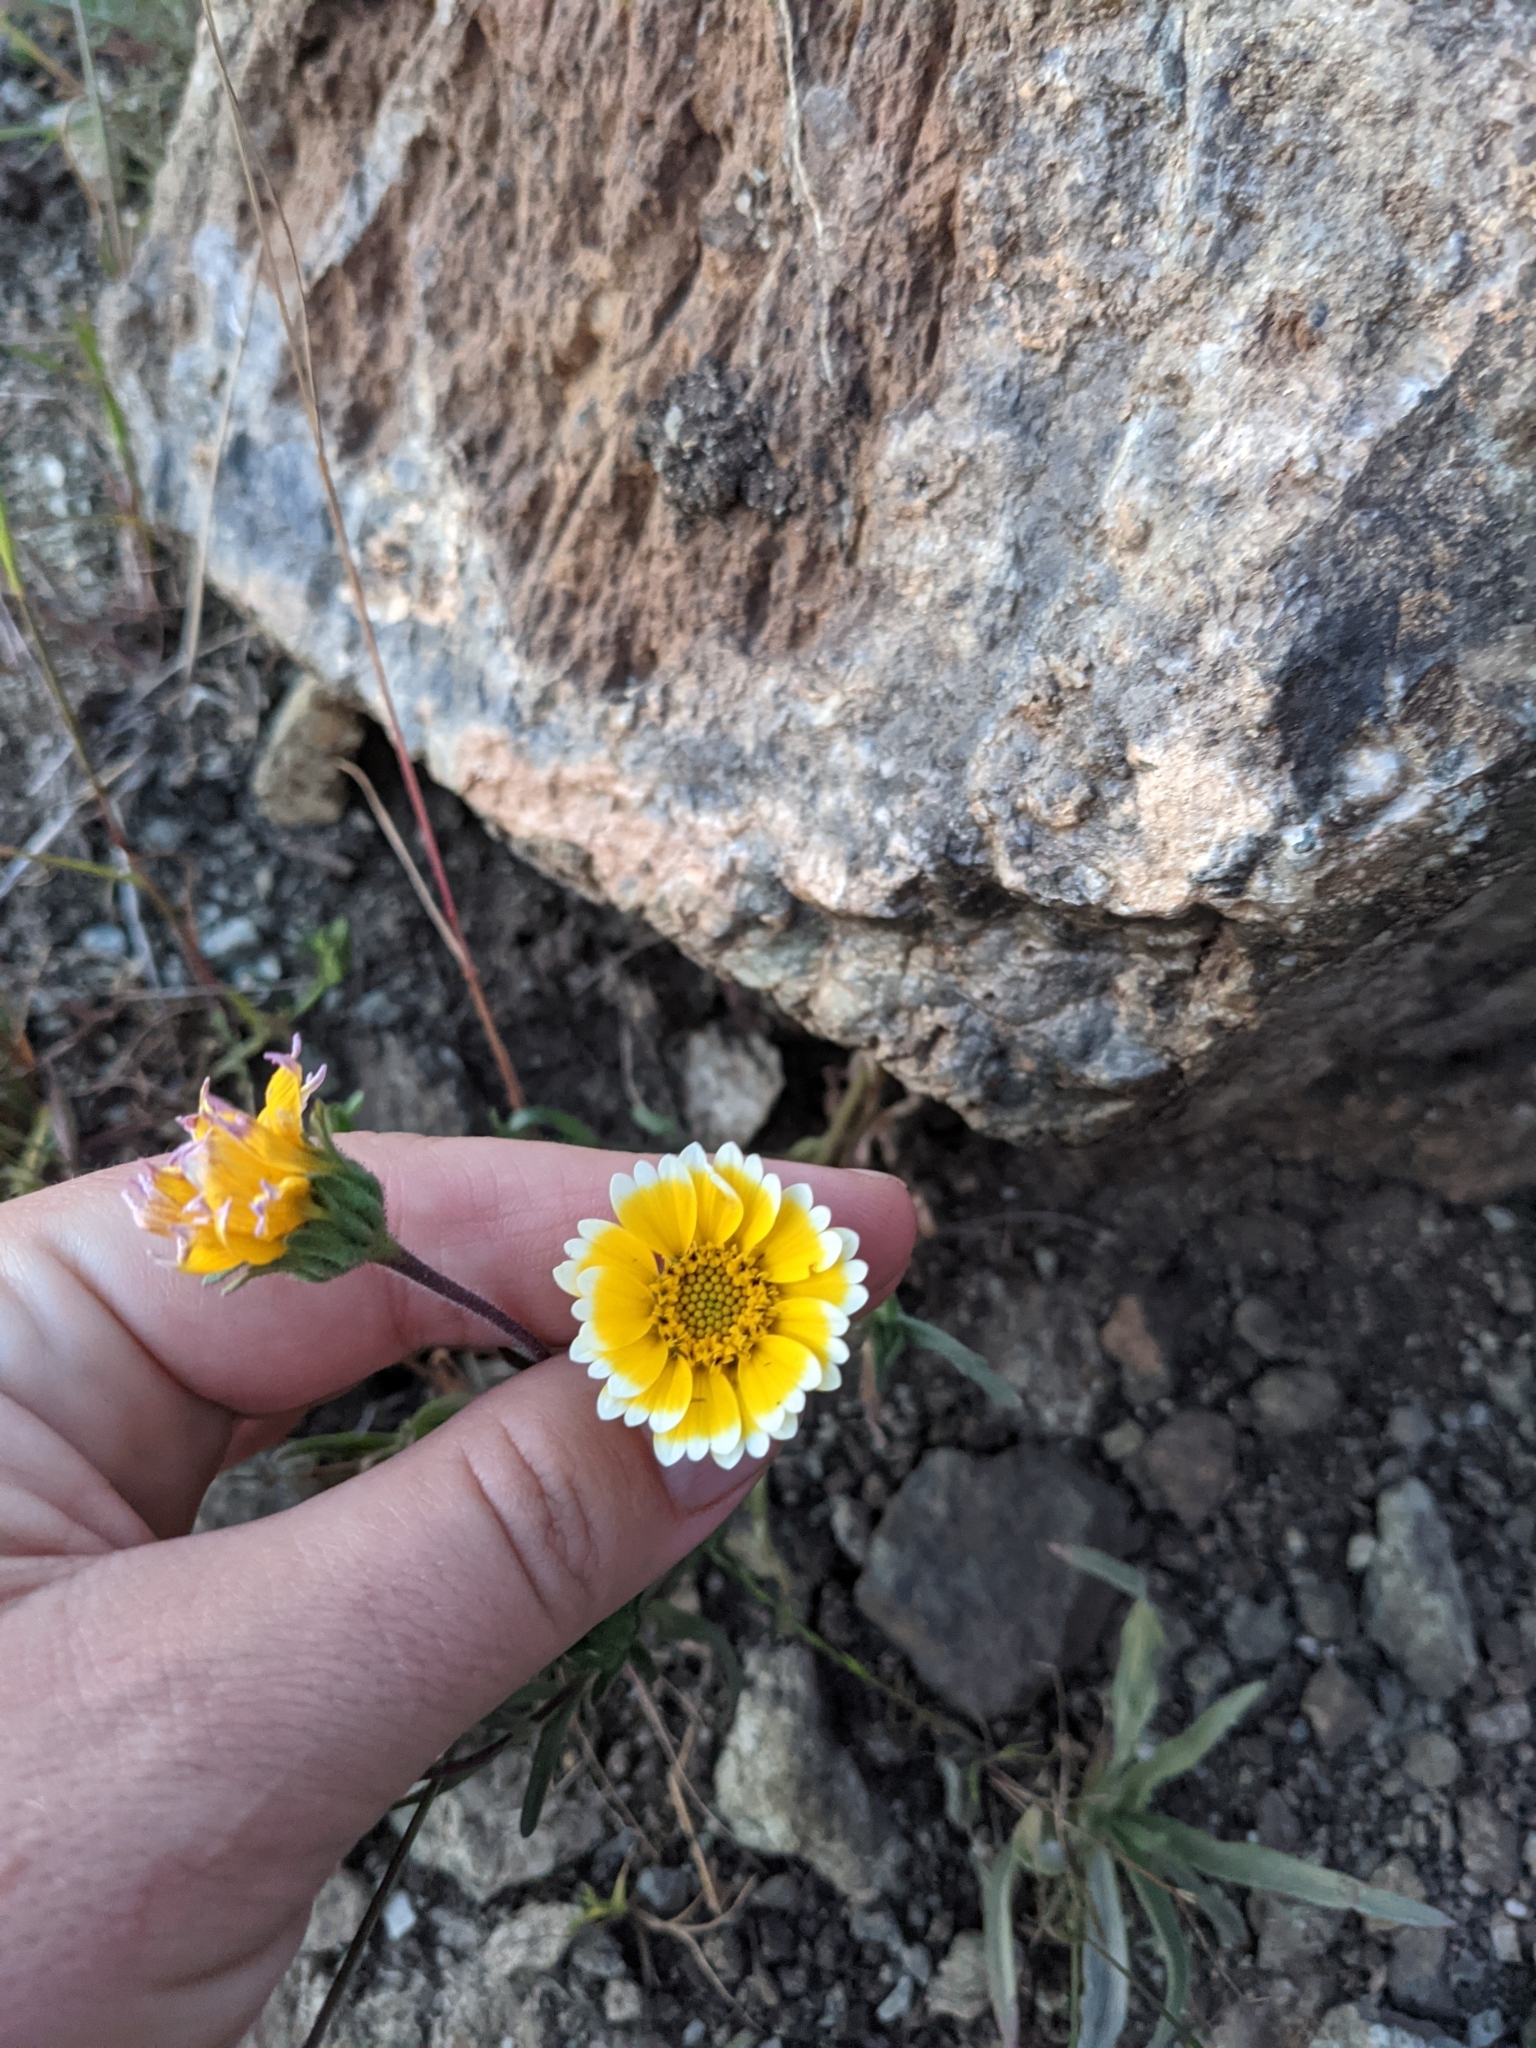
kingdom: Plantae
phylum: Tracheophyta
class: Magnoliopsida
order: Asterales
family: Asteraceae
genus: Layia
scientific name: Layia jonesii
